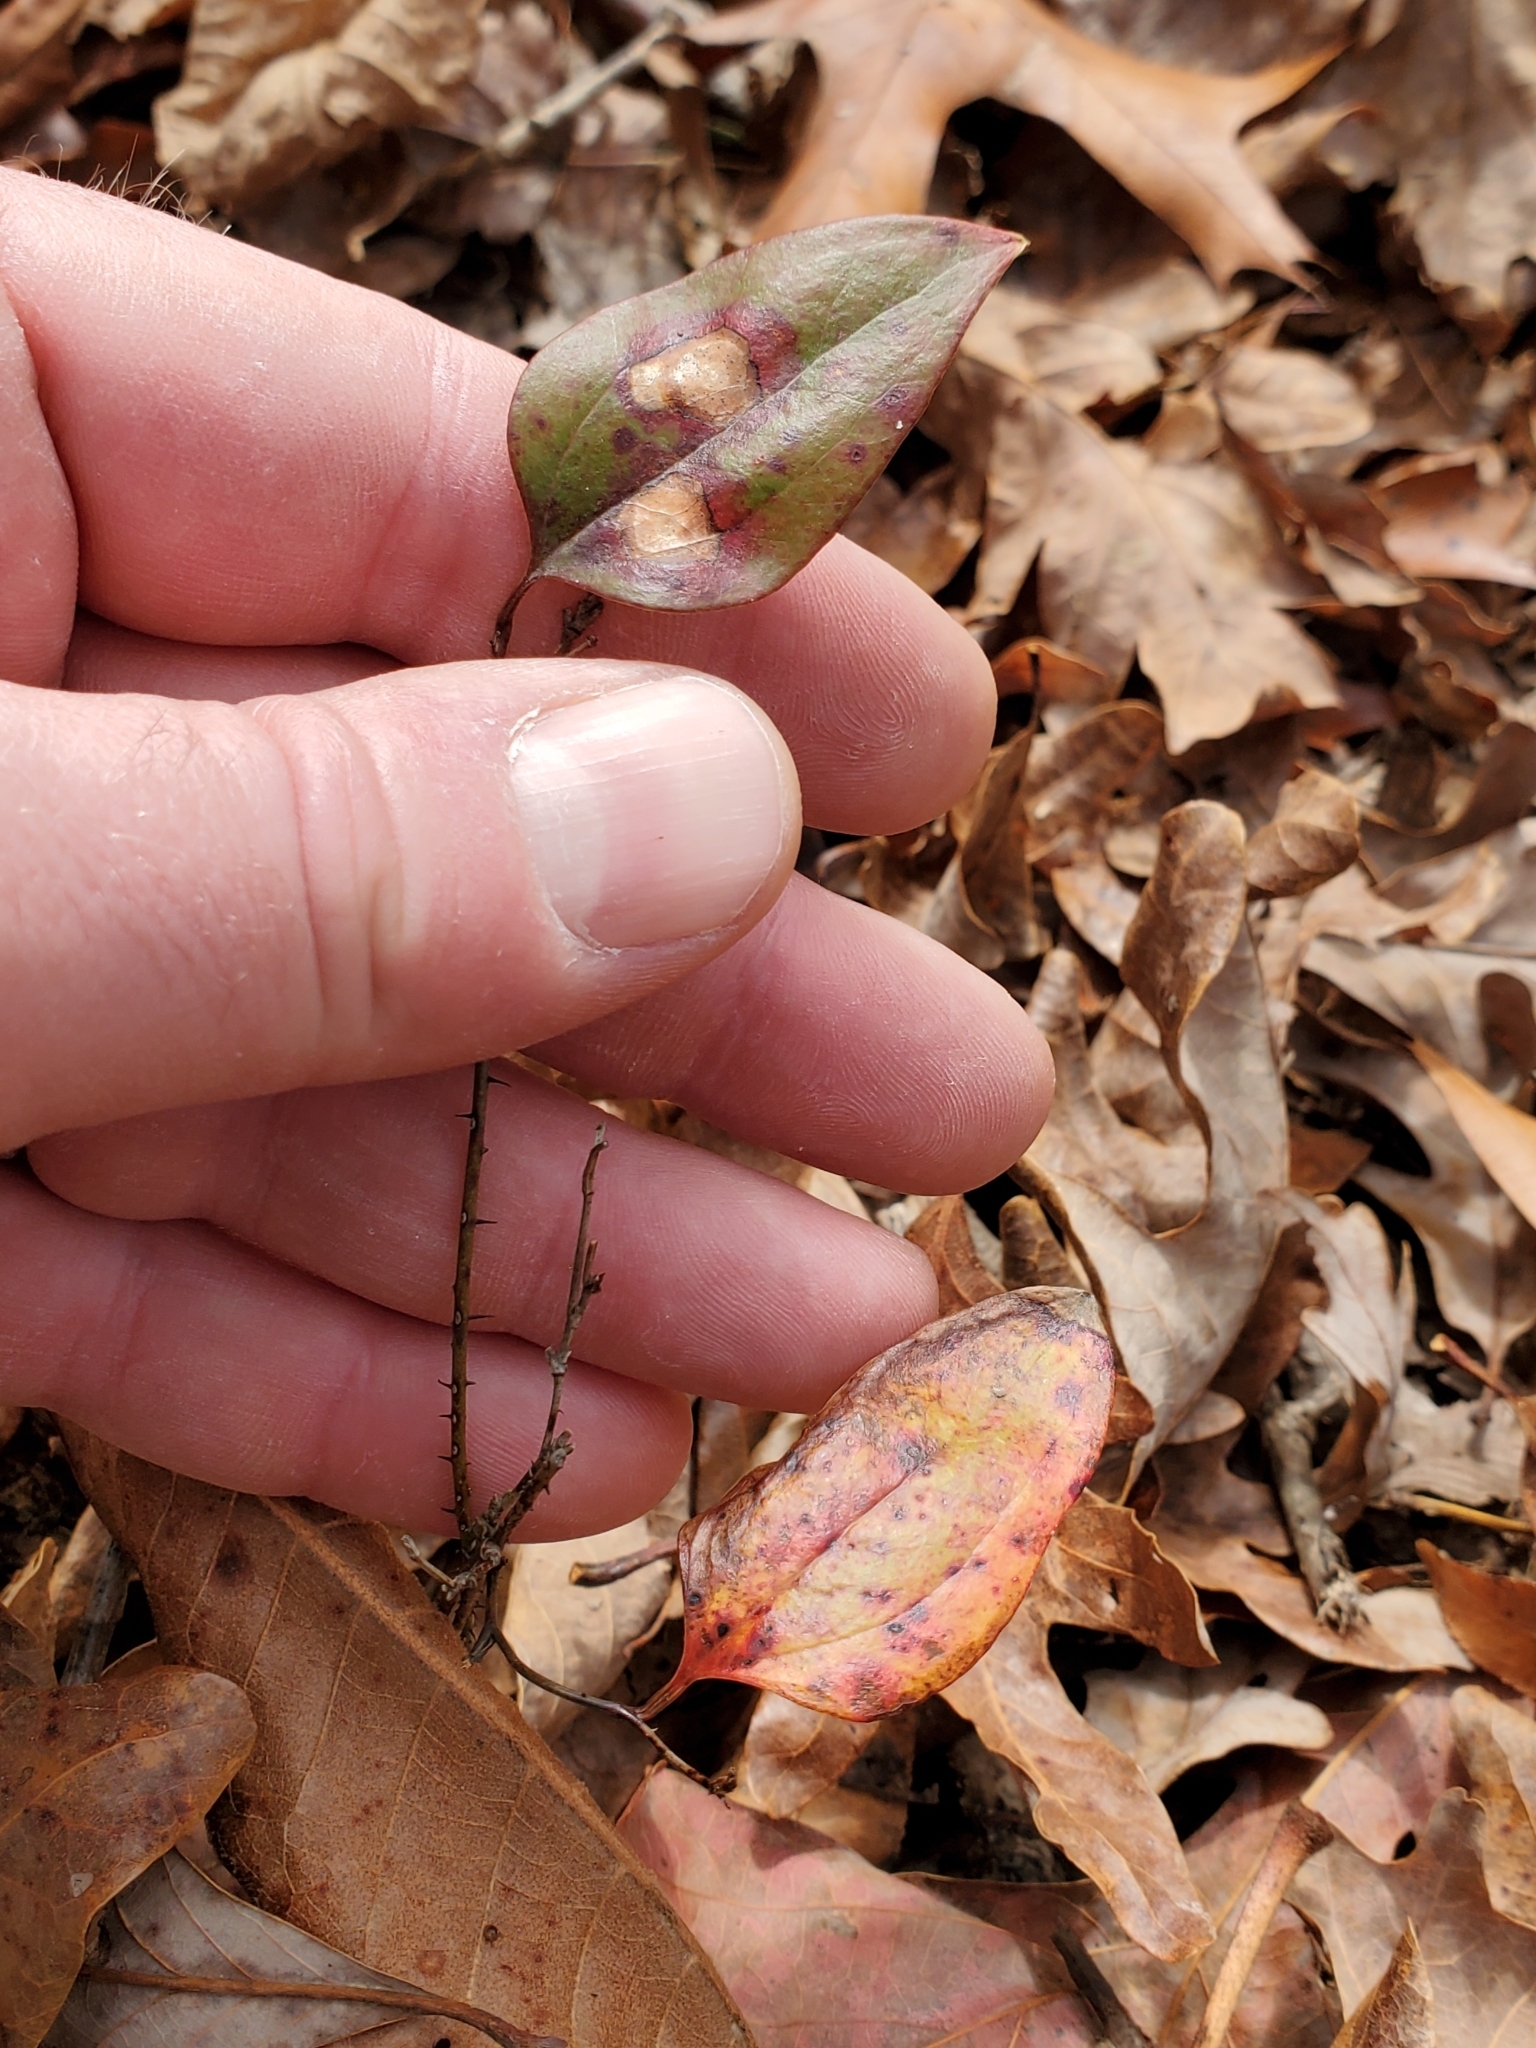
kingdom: Plantae
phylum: Tracheophyta
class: Liliopsida
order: Liliales
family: Smilacaceae
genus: Smilax
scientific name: Smilax glauca
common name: Cat greenbrier
